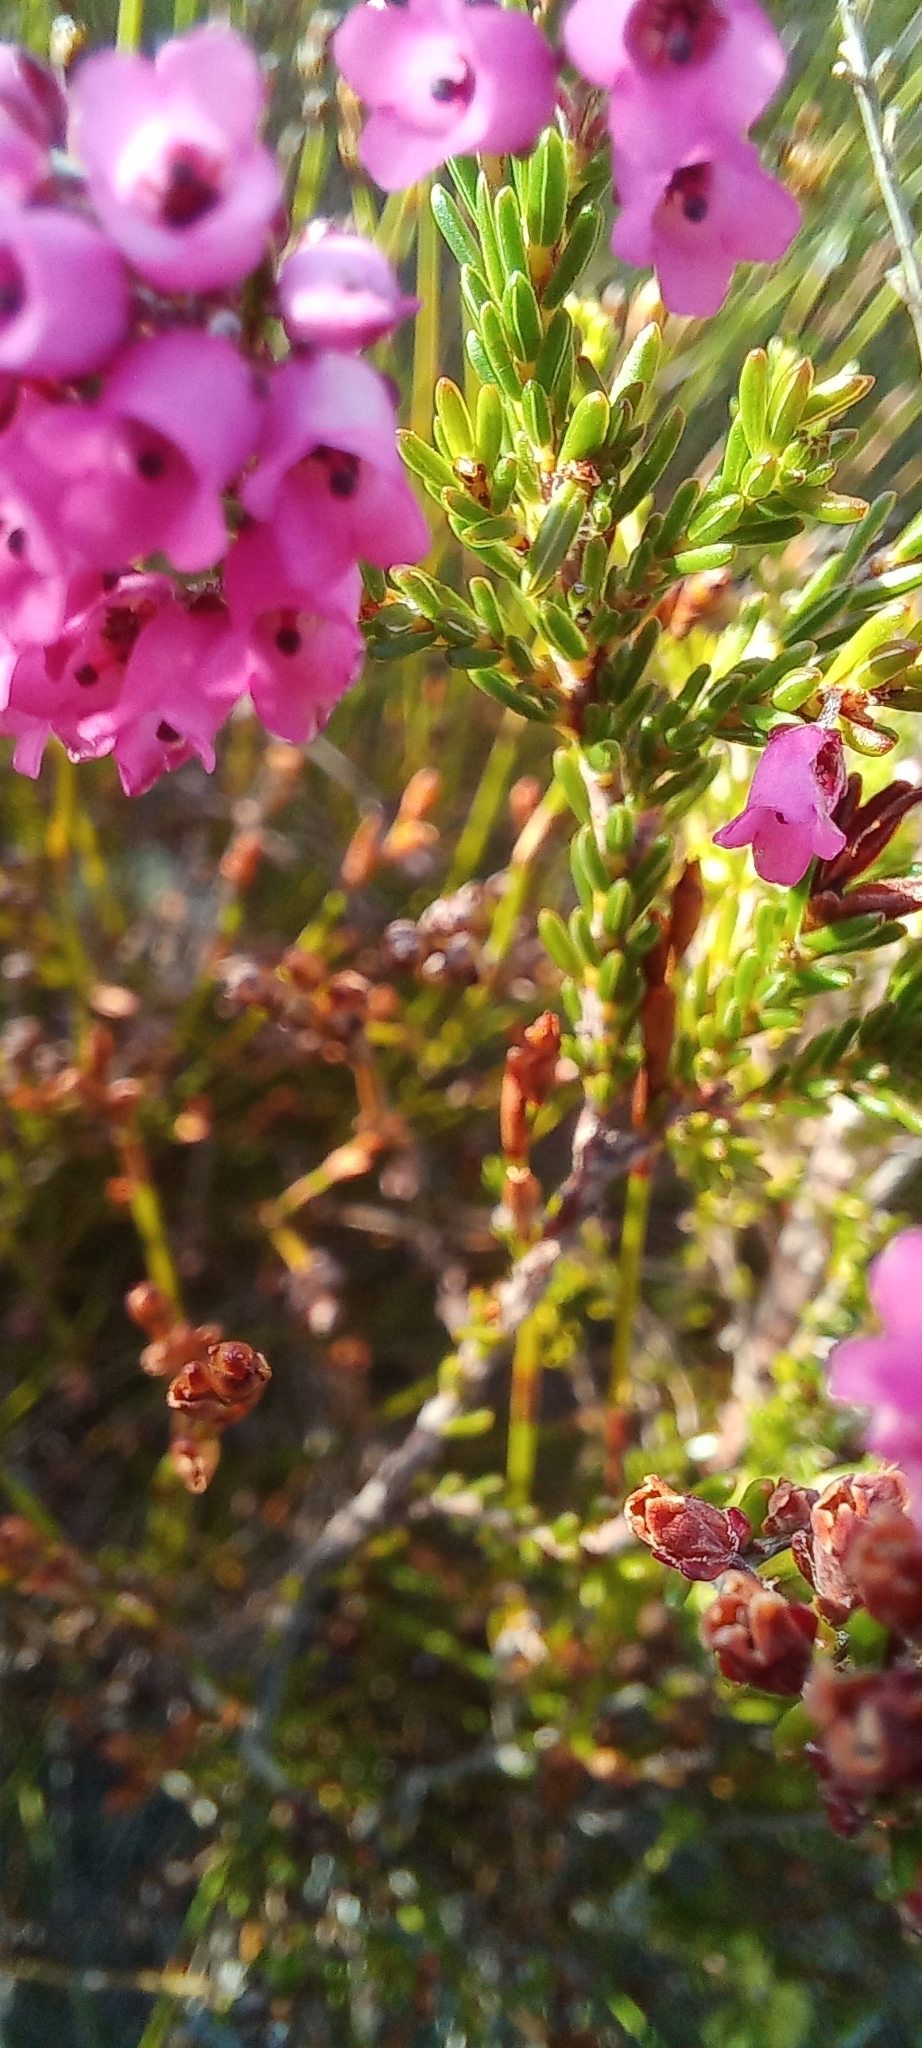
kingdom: Plantae
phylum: Tracheophyta
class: Magnoliopsida
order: Ericales
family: Ericaceae
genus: Erica
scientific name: Erica pulchella
